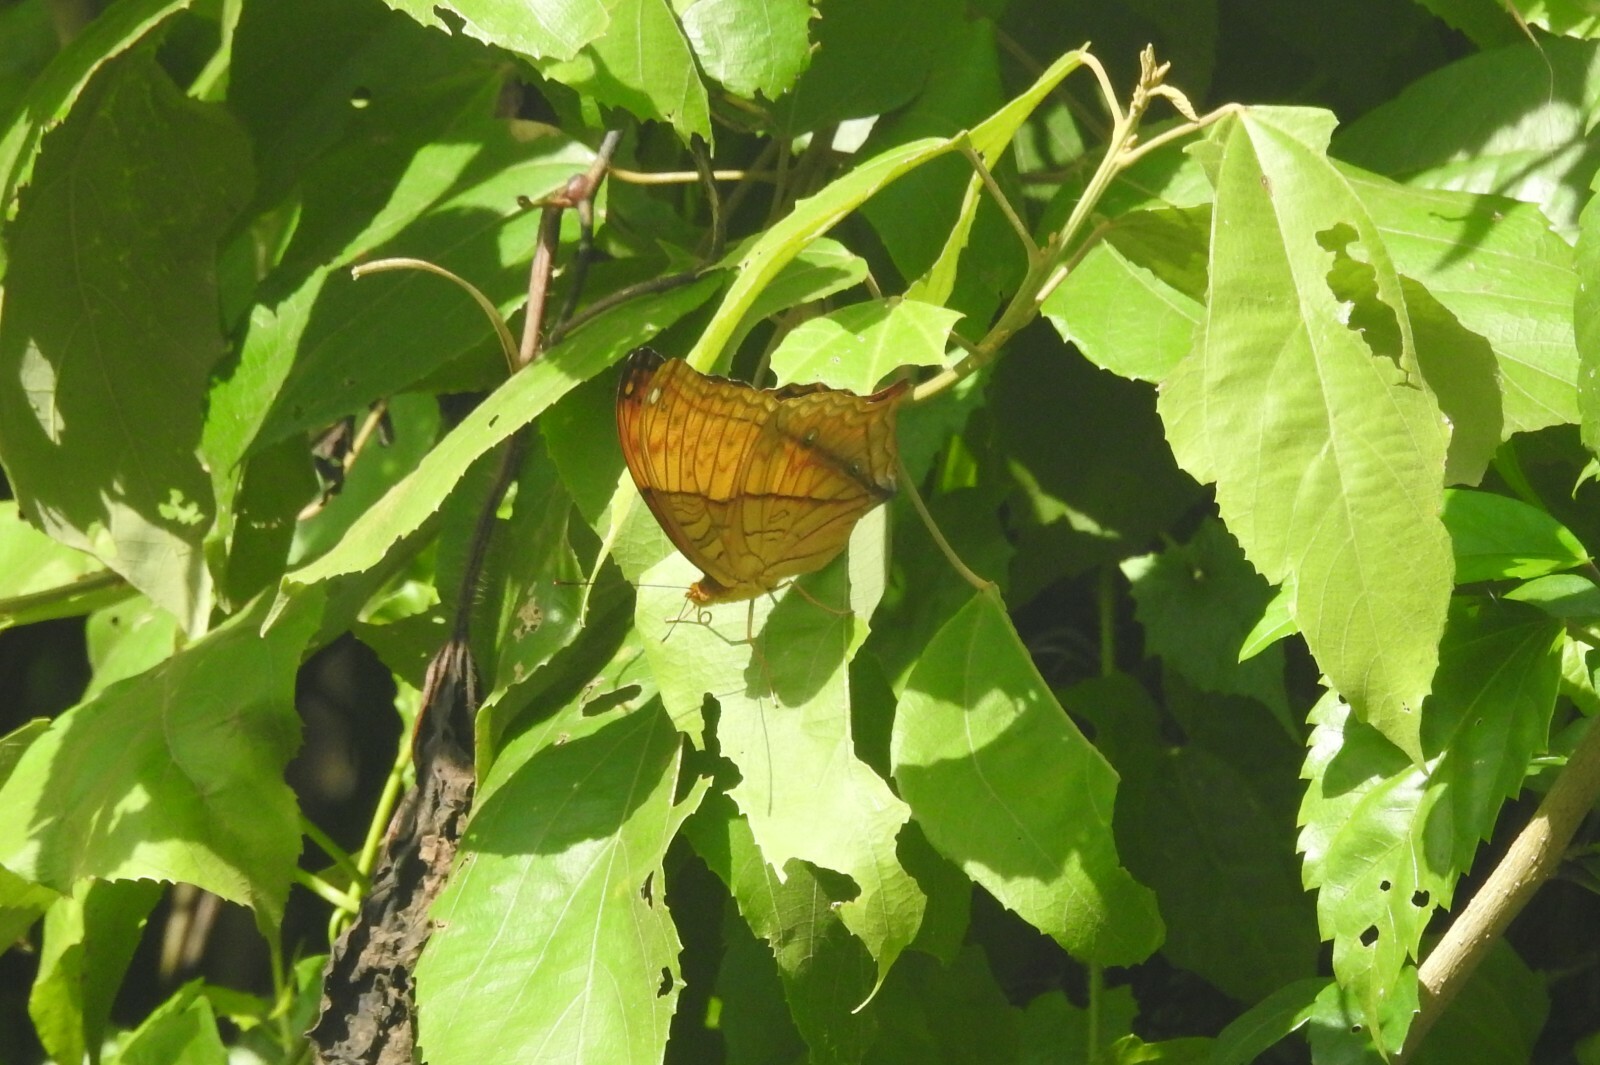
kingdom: Animalia
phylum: Arthropoda
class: Insecta
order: Lepidoptera
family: Nymphalidae
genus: Vindula
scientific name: Vindula erota
